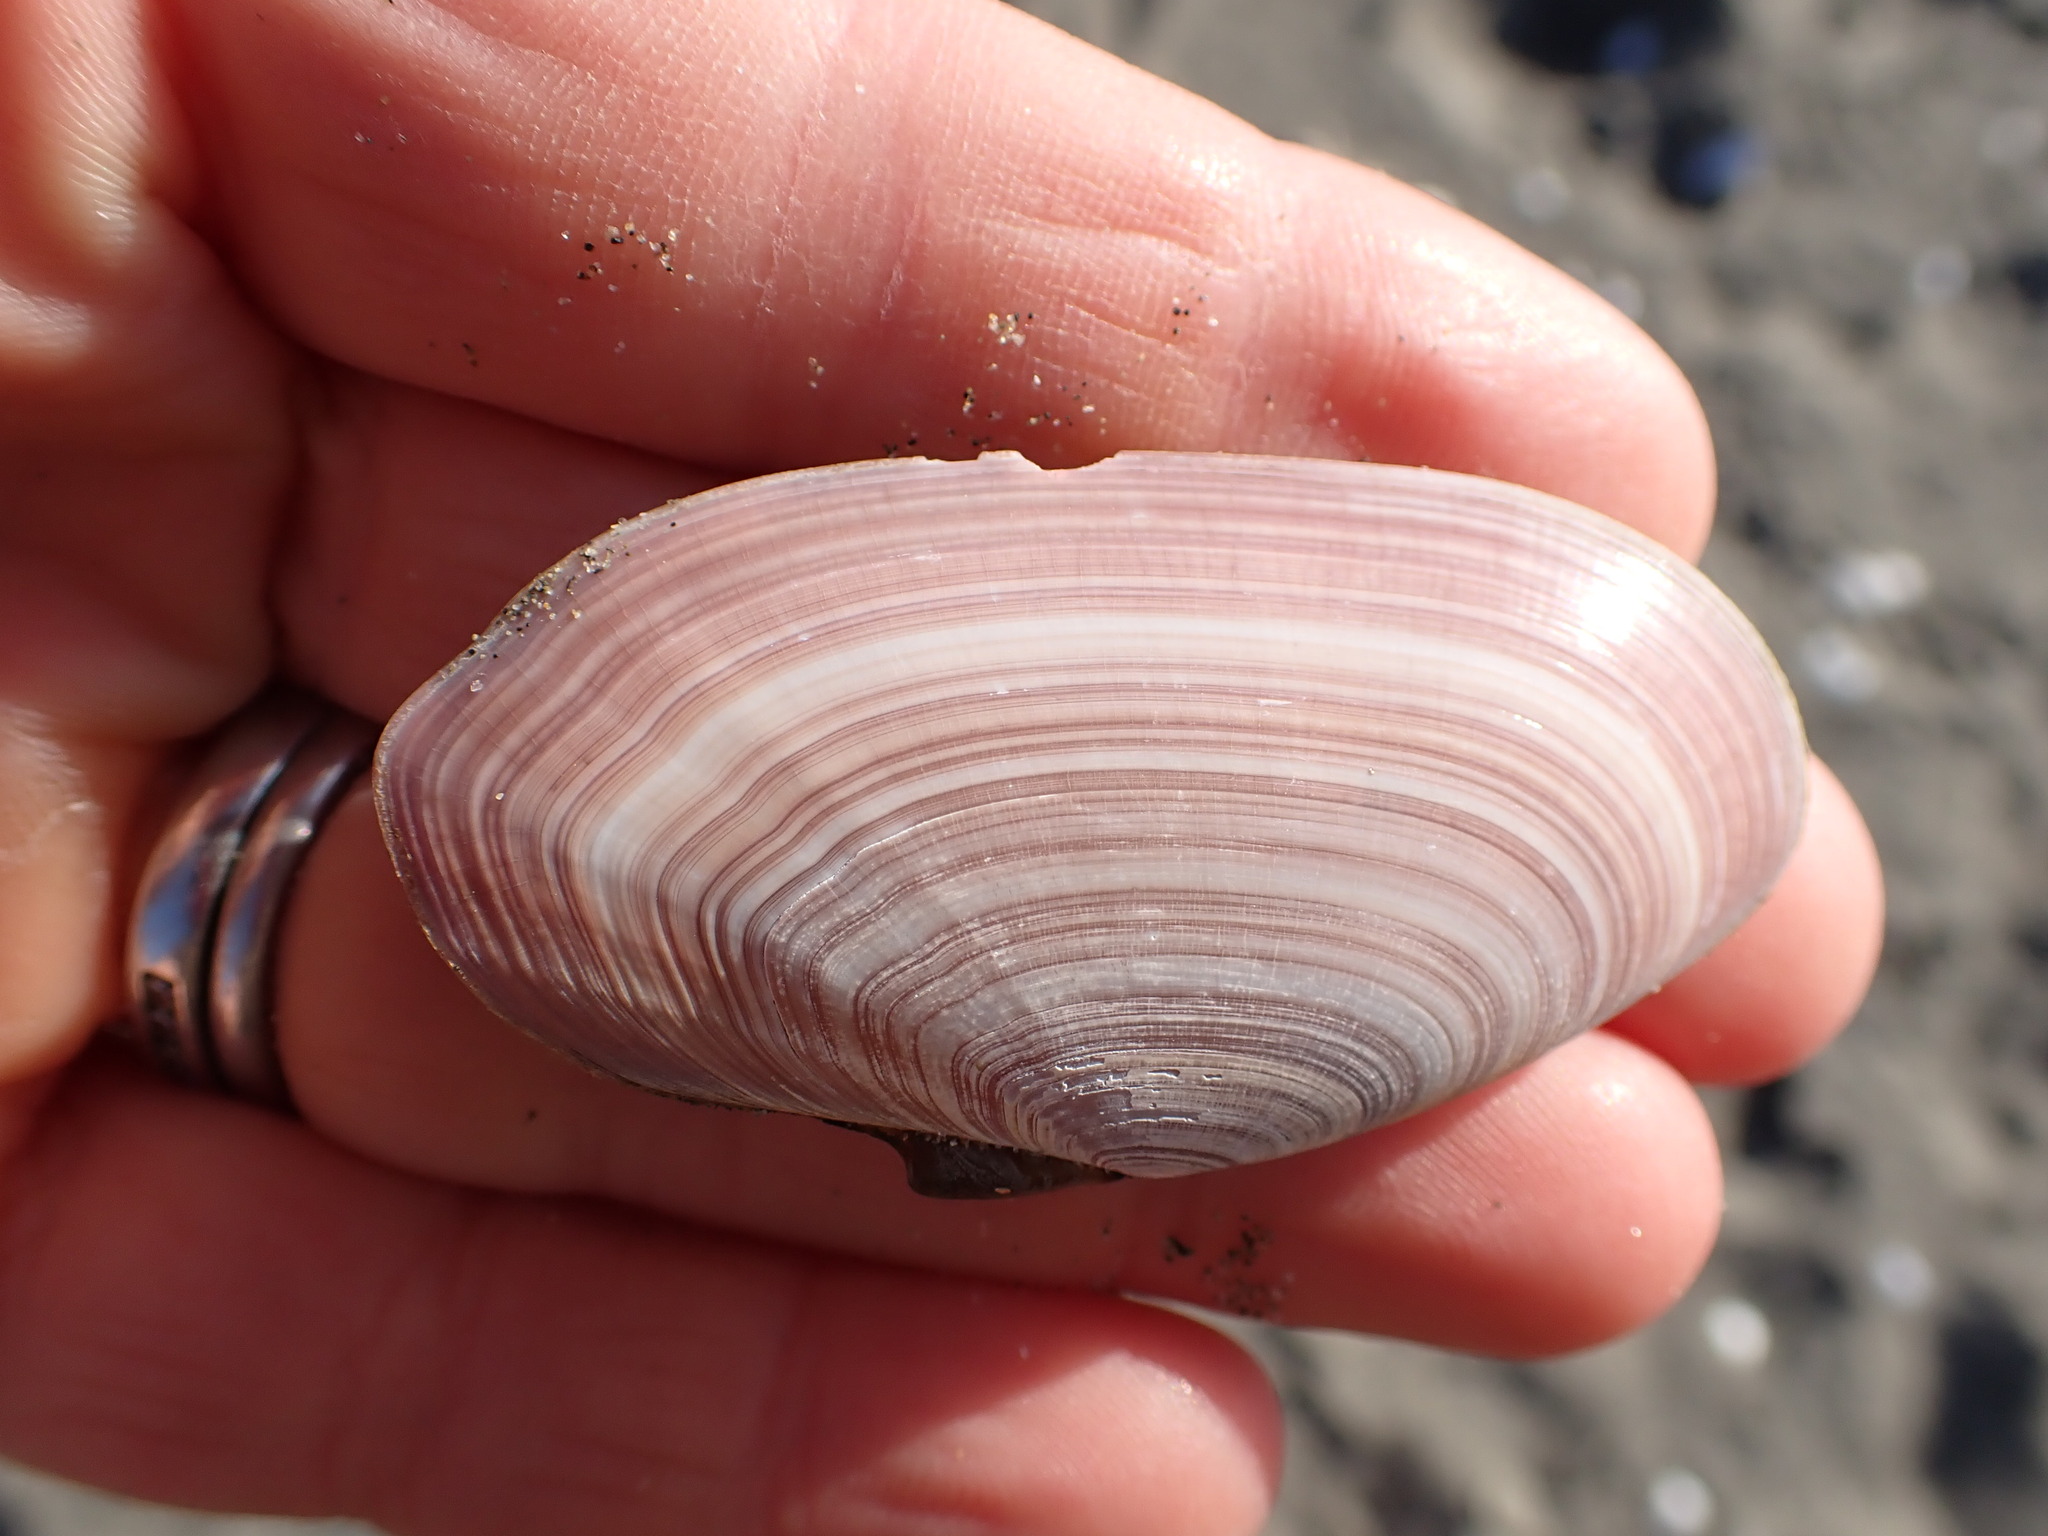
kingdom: Animalia
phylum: Mollusca
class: Bivalvia
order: Cardiida
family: Psammobiidae
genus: Gari
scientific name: Gari lineolata
